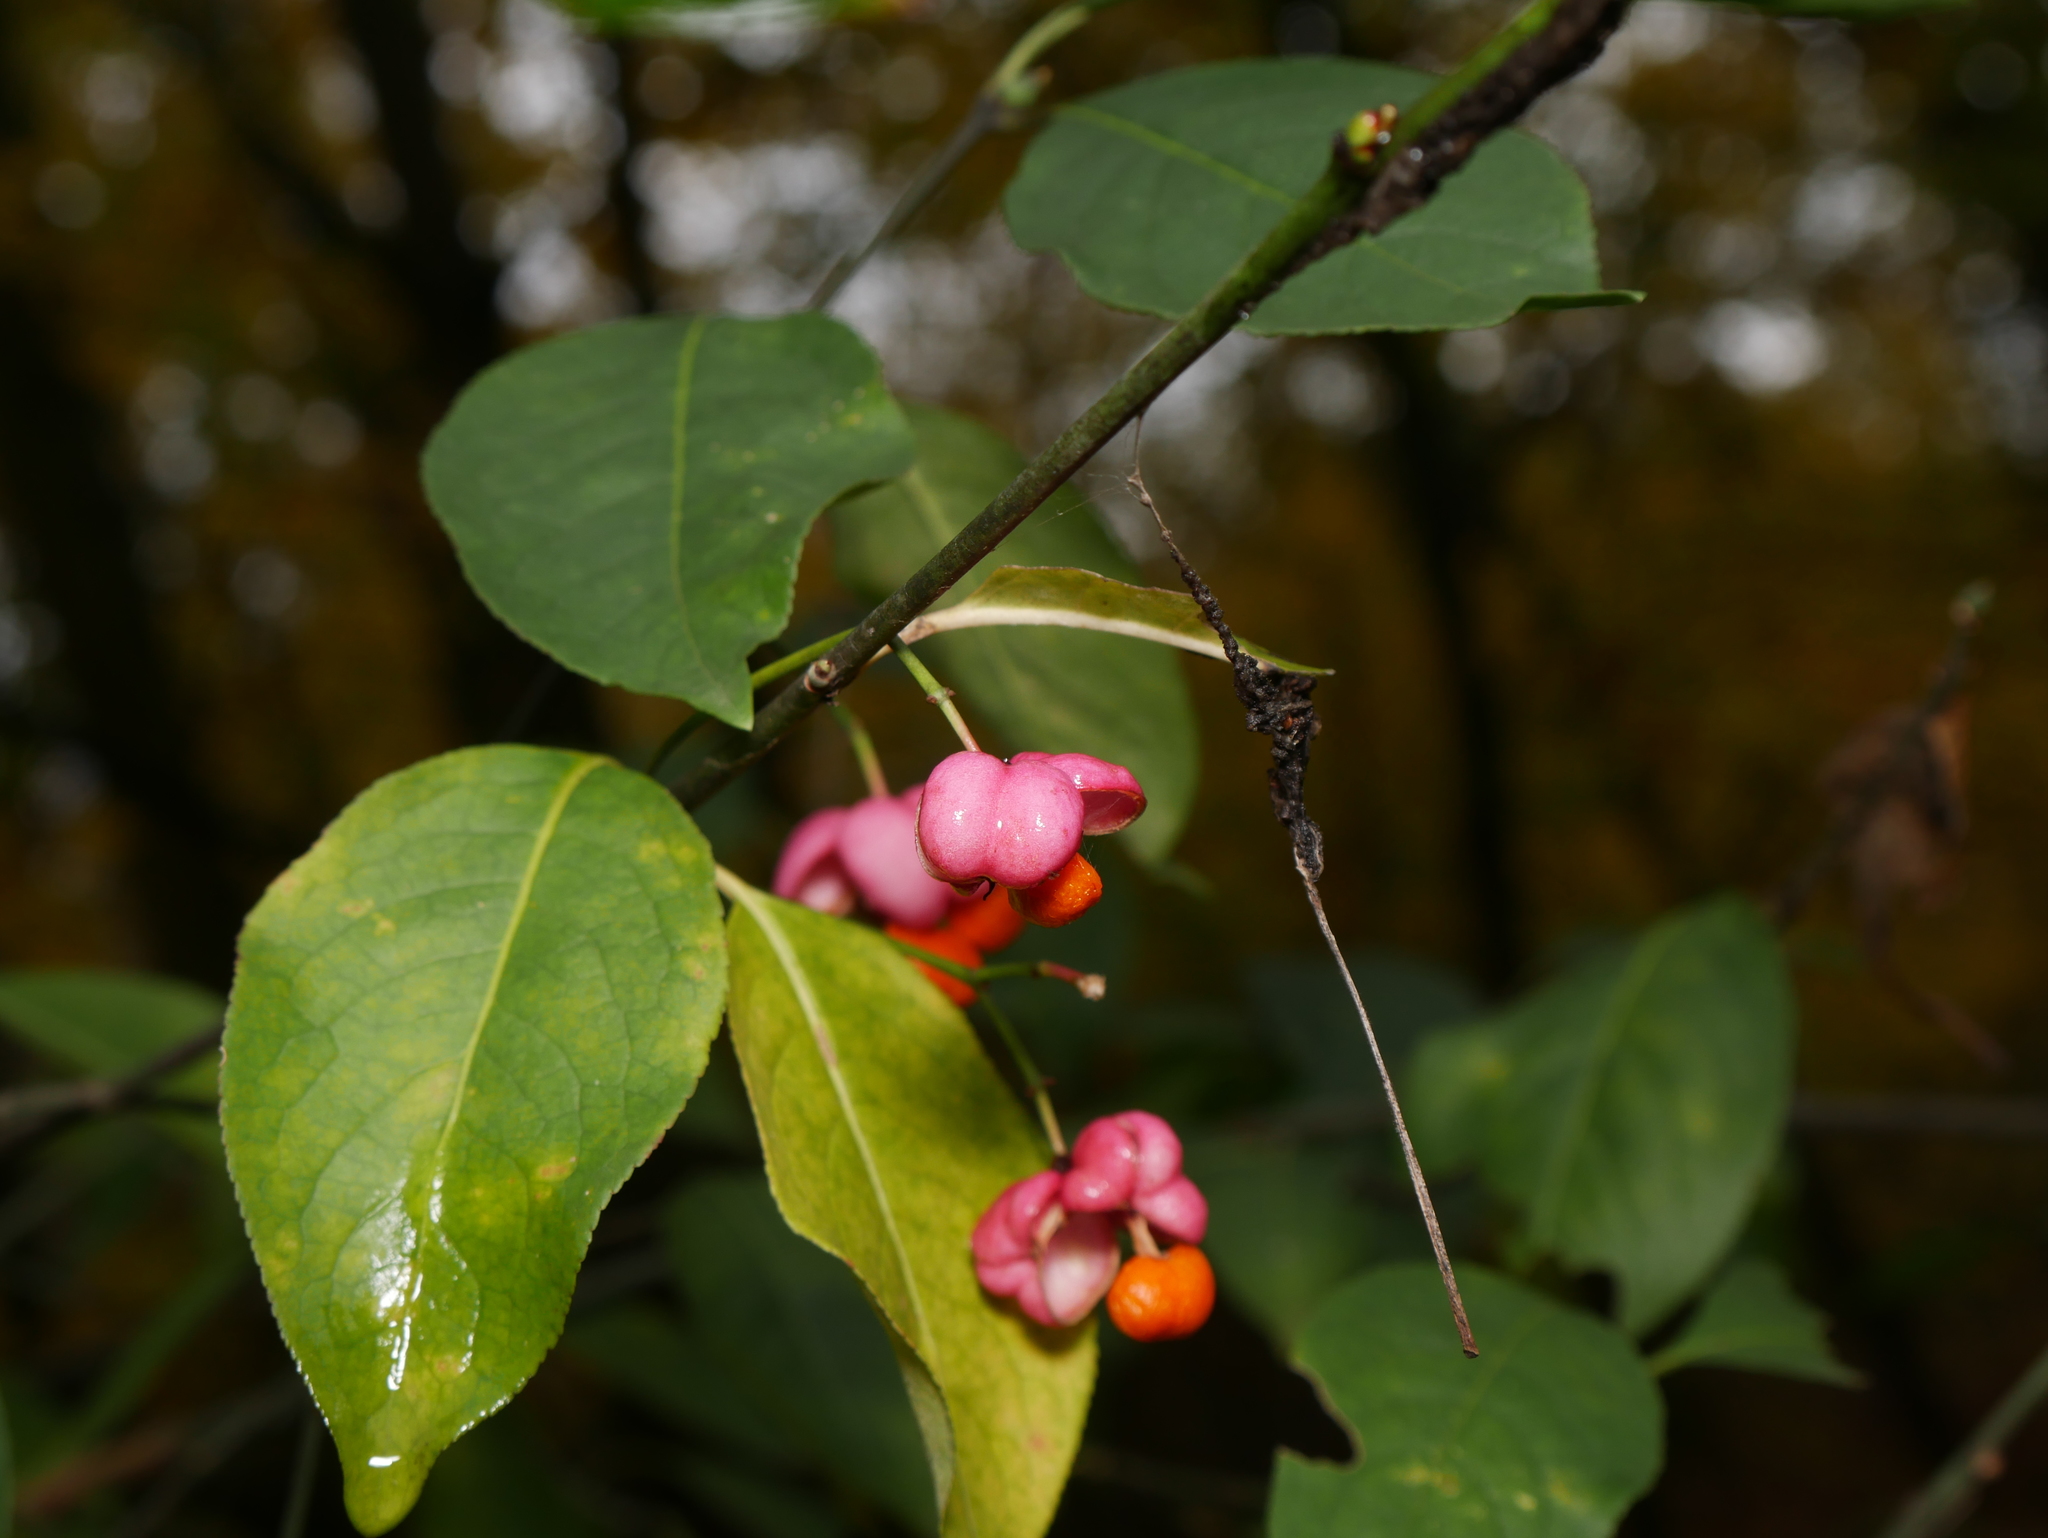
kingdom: Plantae
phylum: Tracheophyta
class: Magnoliopsida
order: Celastrales
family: Celastraceae
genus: Euonymus
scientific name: Euonymus europaeus
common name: Spindle
